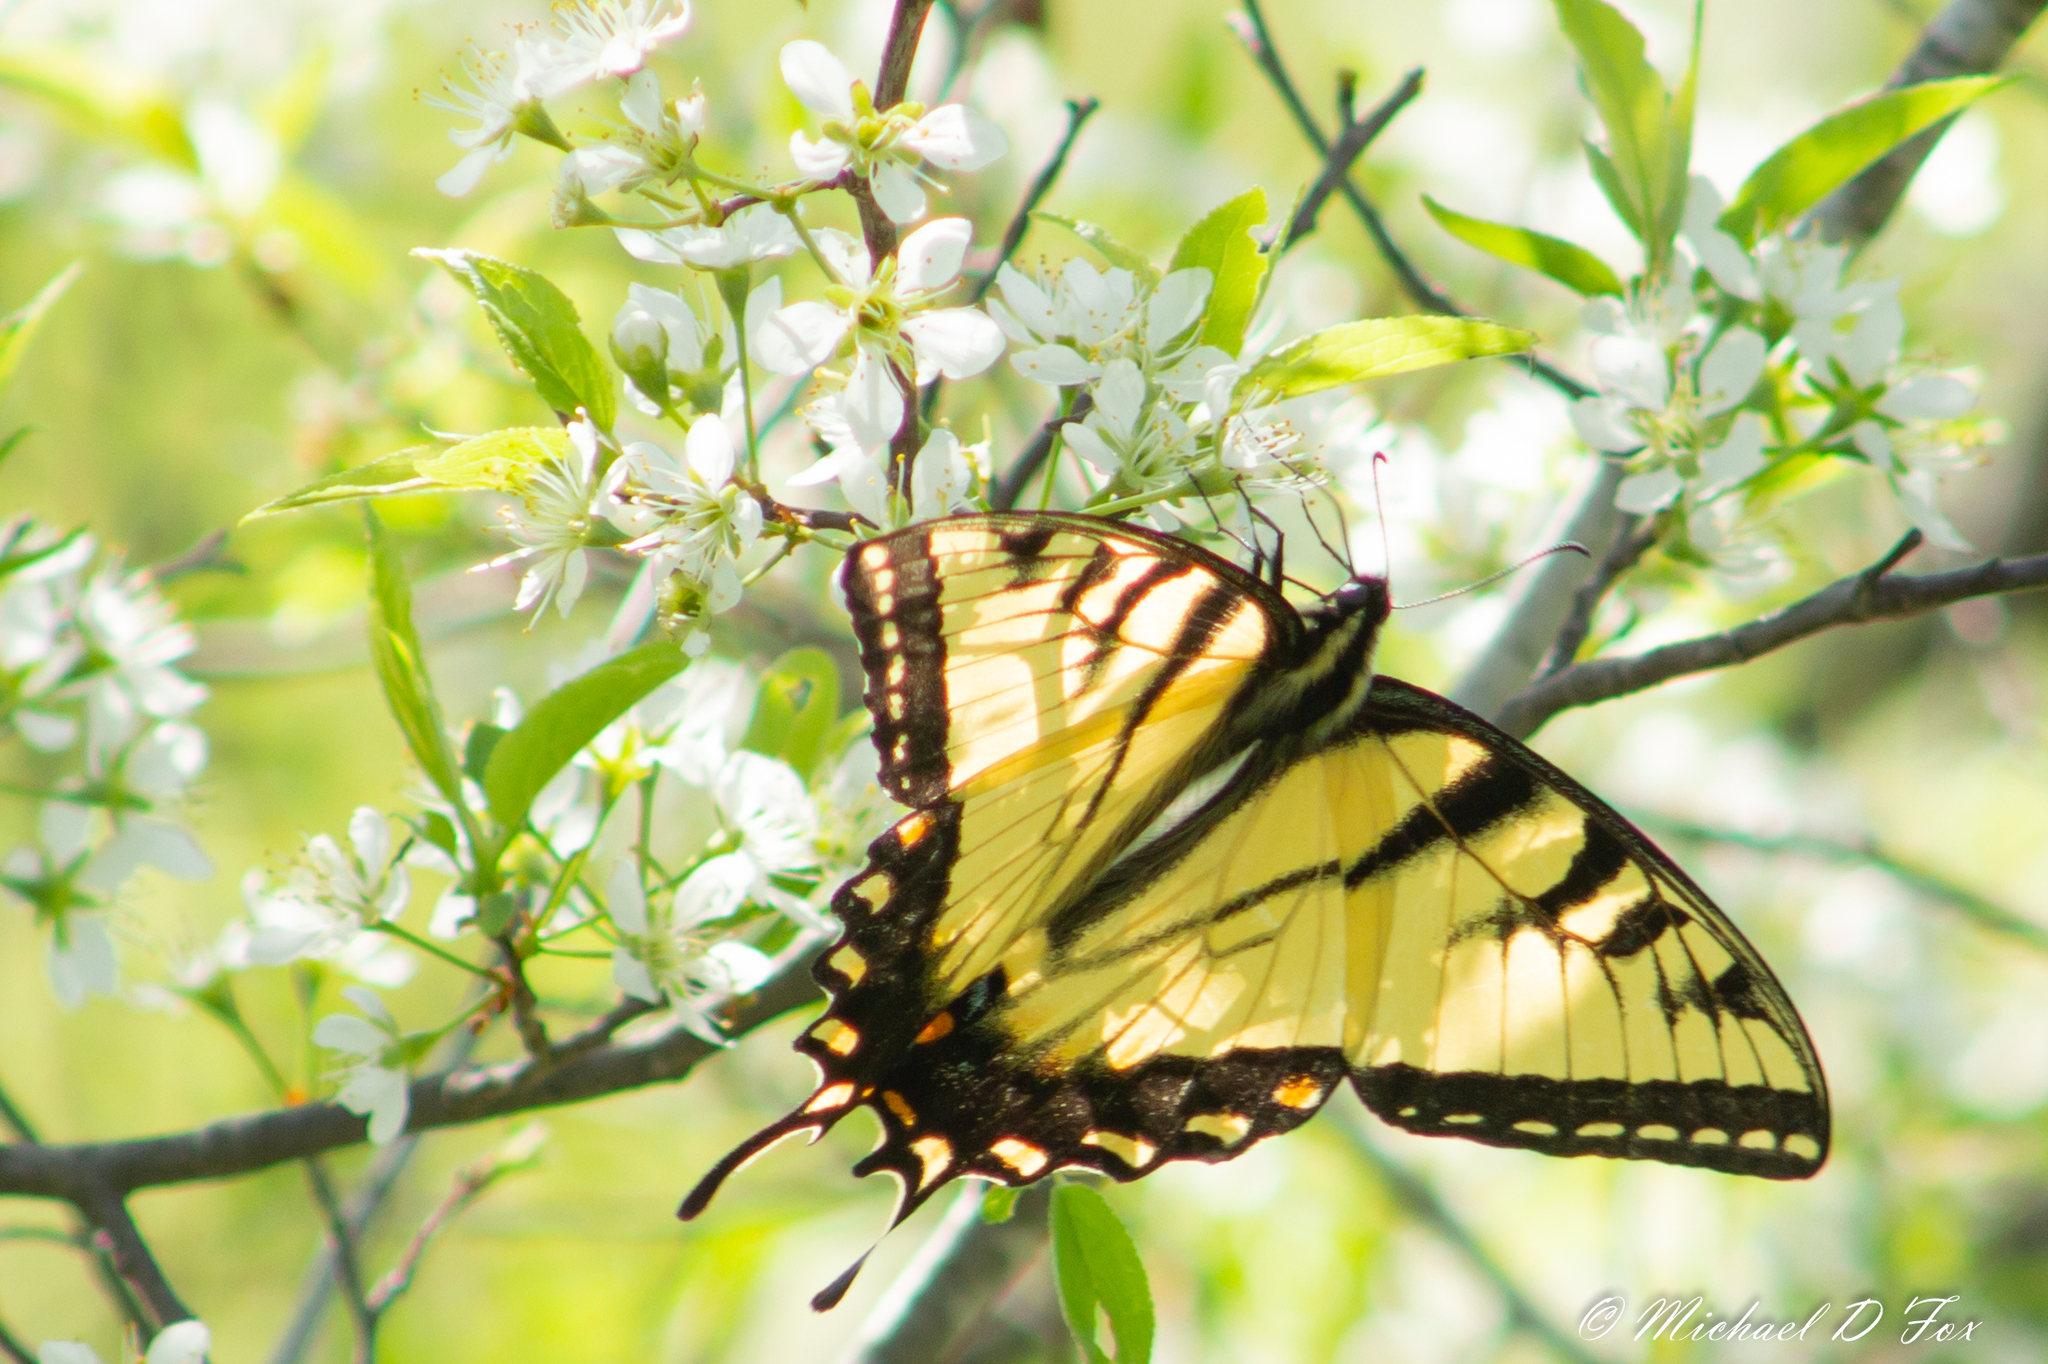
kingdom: Animalia
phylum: Arthropoda
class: Insecta
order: Lepidoptera
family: Papilionidae
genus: Papilio
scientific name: Papilio glaucus
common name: Tiger swallowtail
